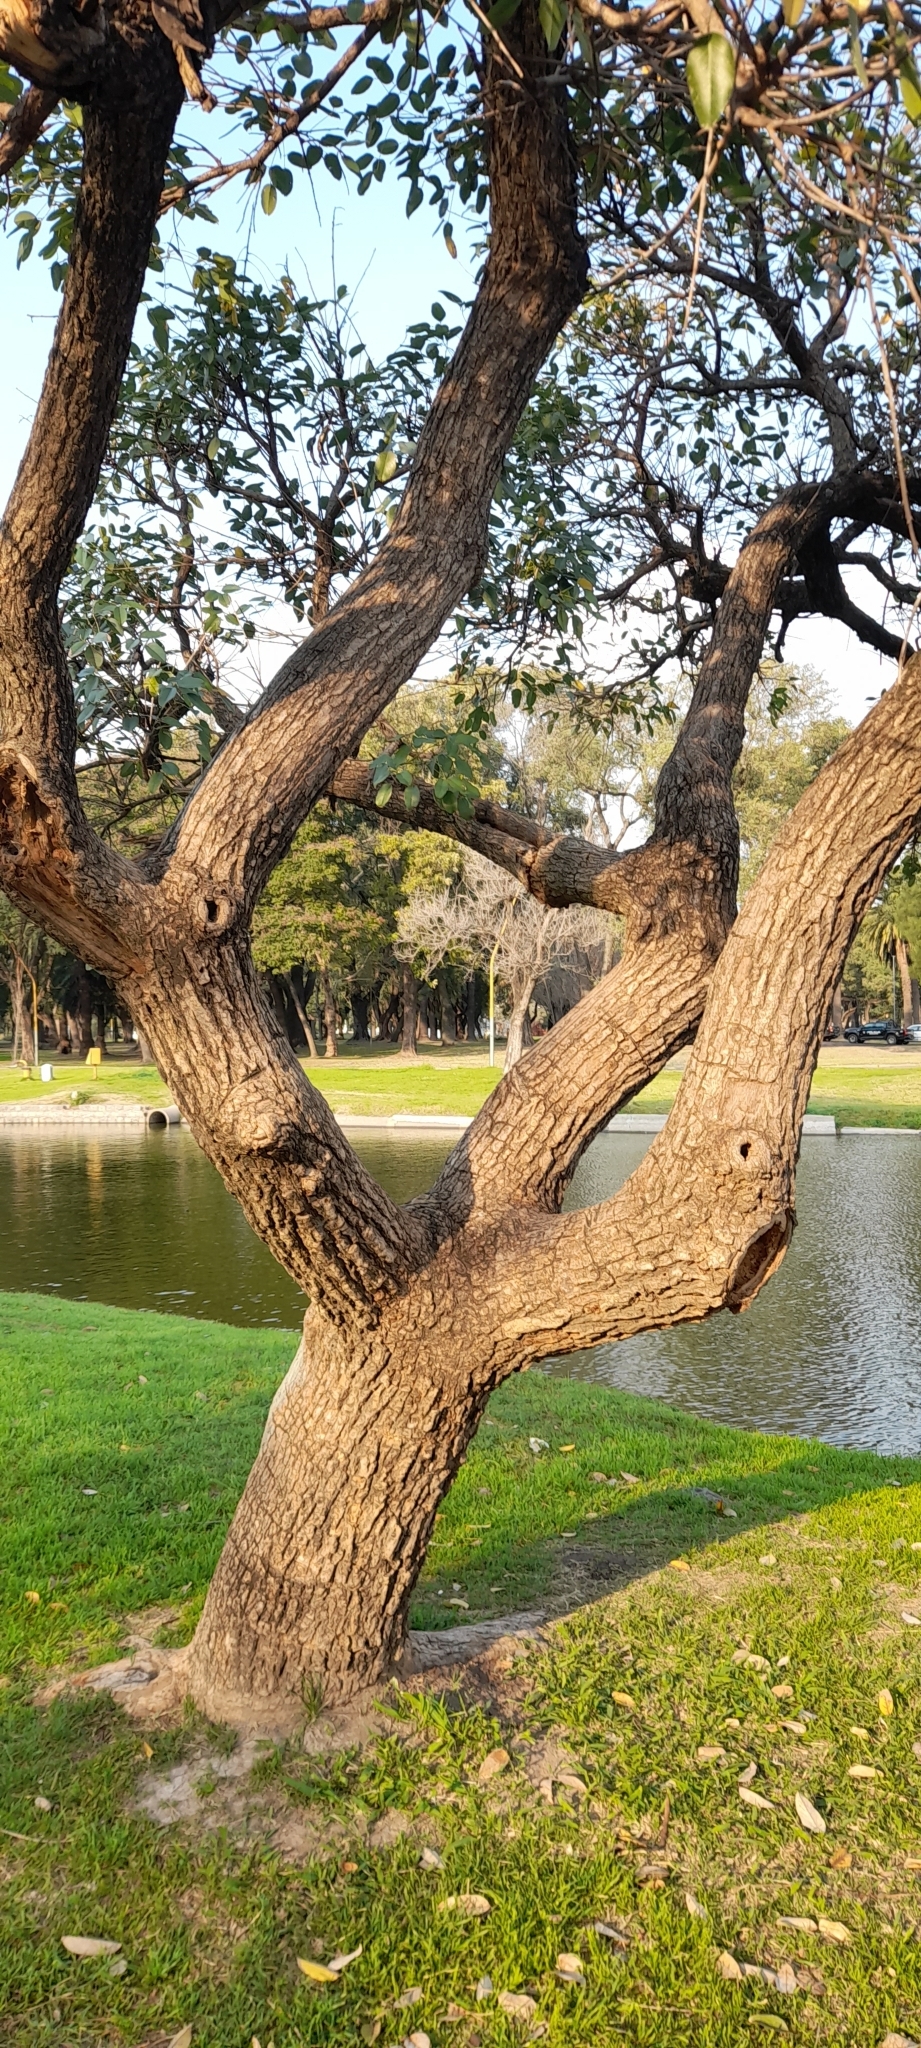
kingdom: Plantae
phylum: Tracheophyta
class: Magnoliopsida
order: Fabales
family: Fabaceae
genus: Erythrina
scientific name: Erythrina crista-galli
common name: Cockspur coral tree
